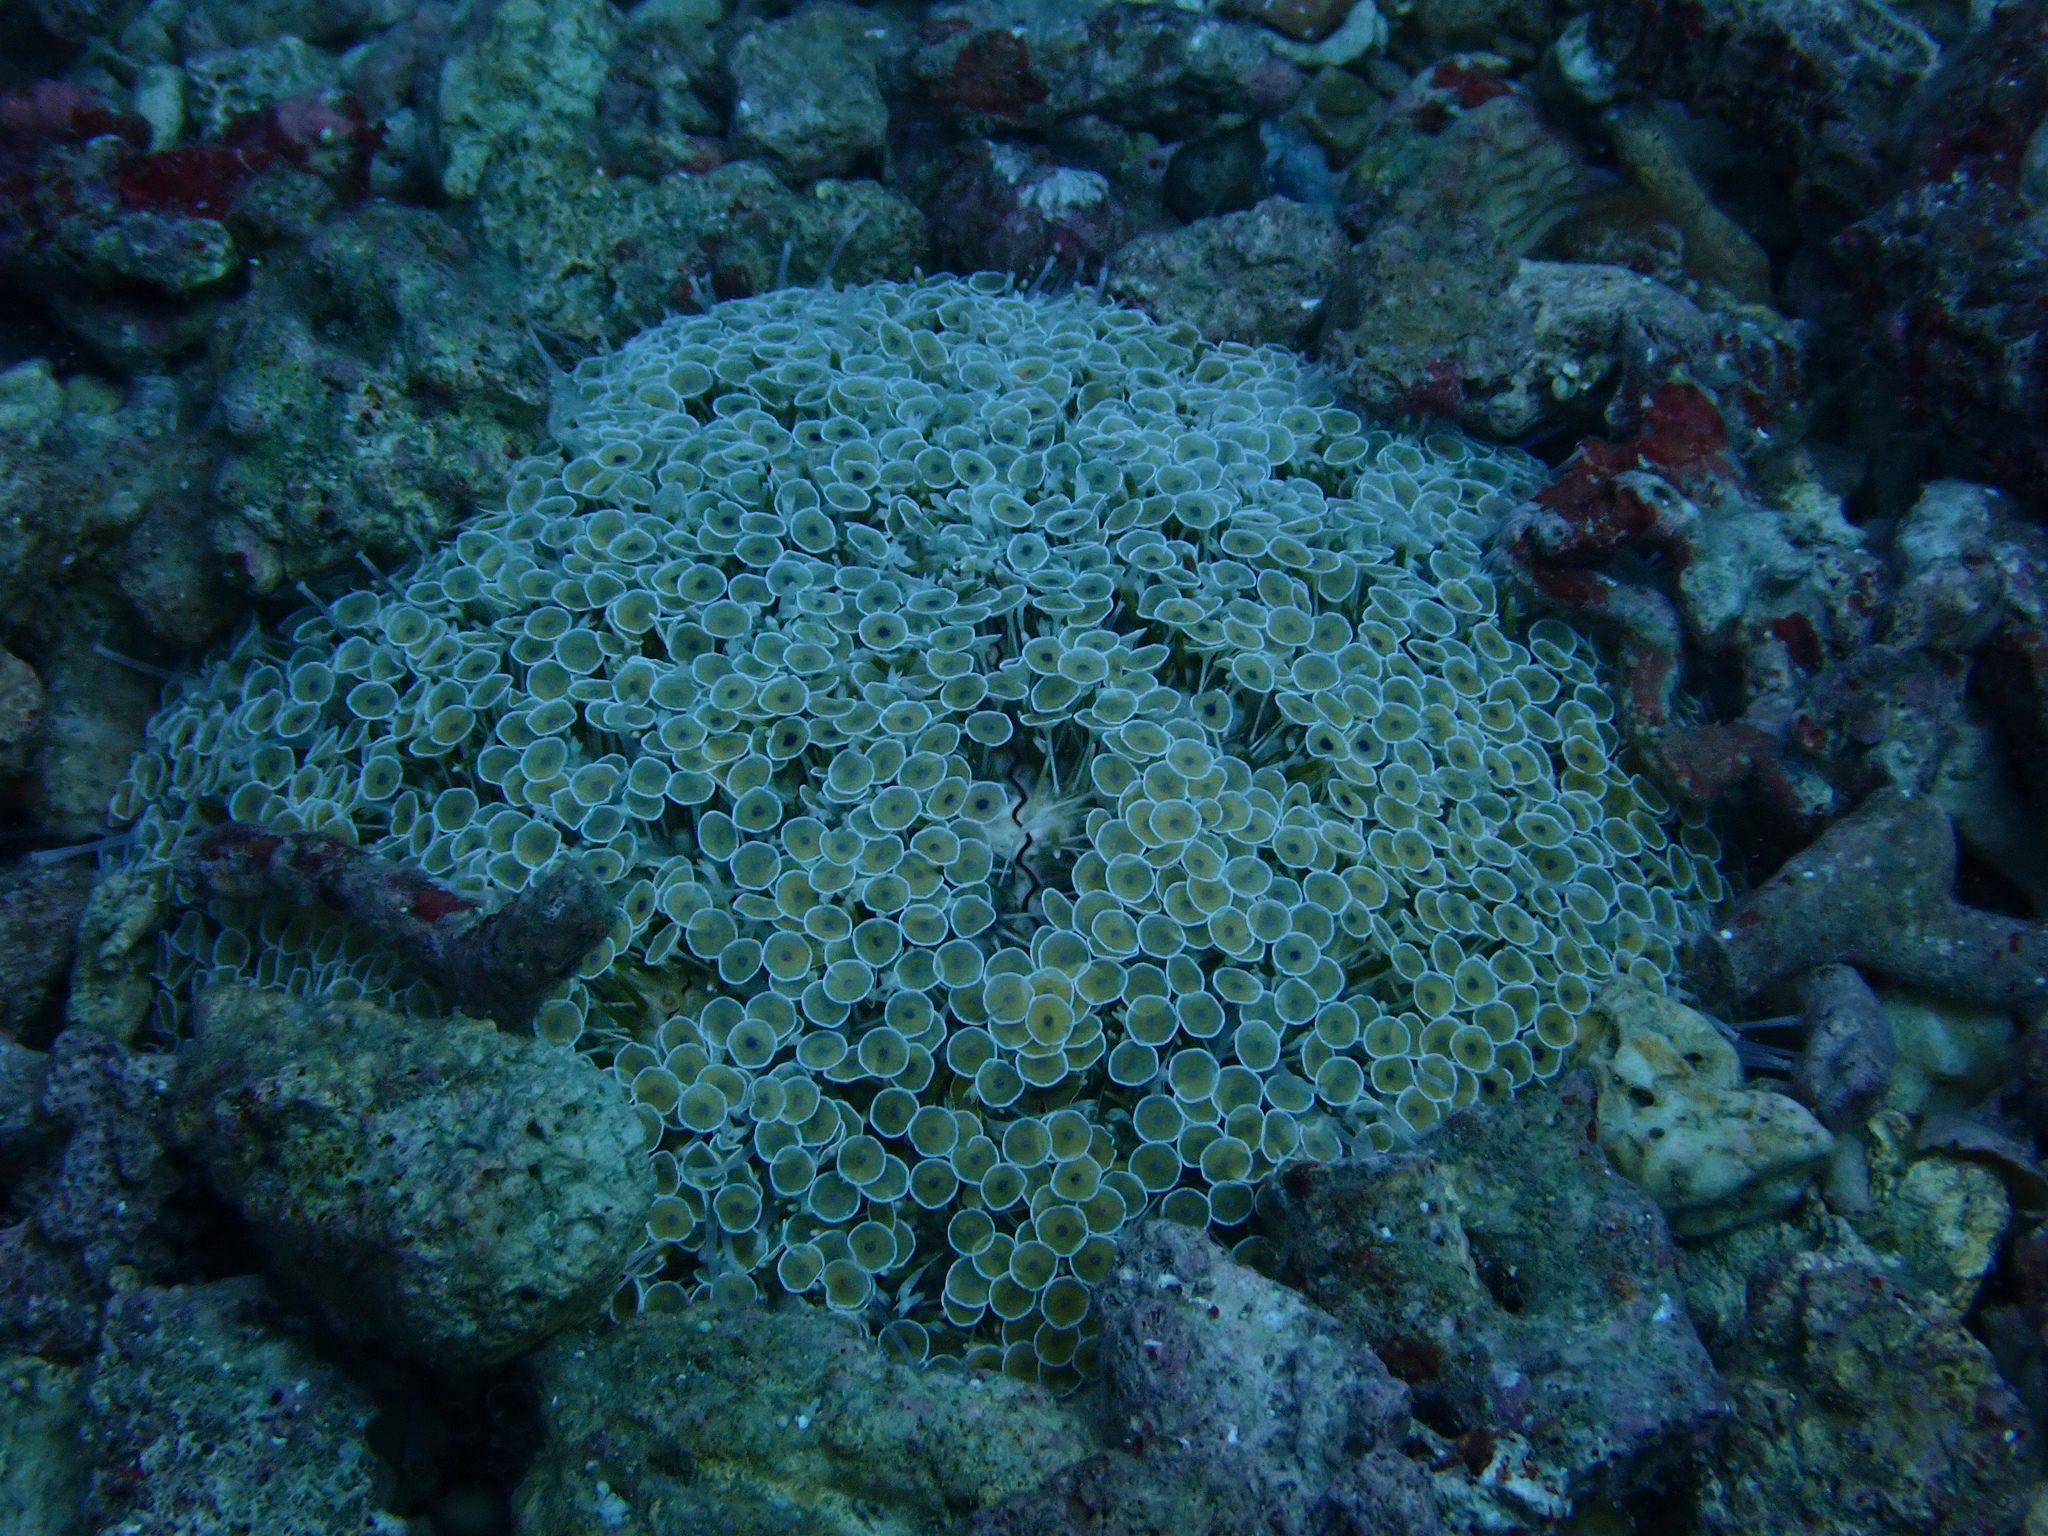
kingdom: Animalia
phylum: Echinodermata
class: Echinoidea
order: Camarodonta
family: Toxopneustidae
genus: Toxopneustes
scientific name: Toxopneustes pileolus
